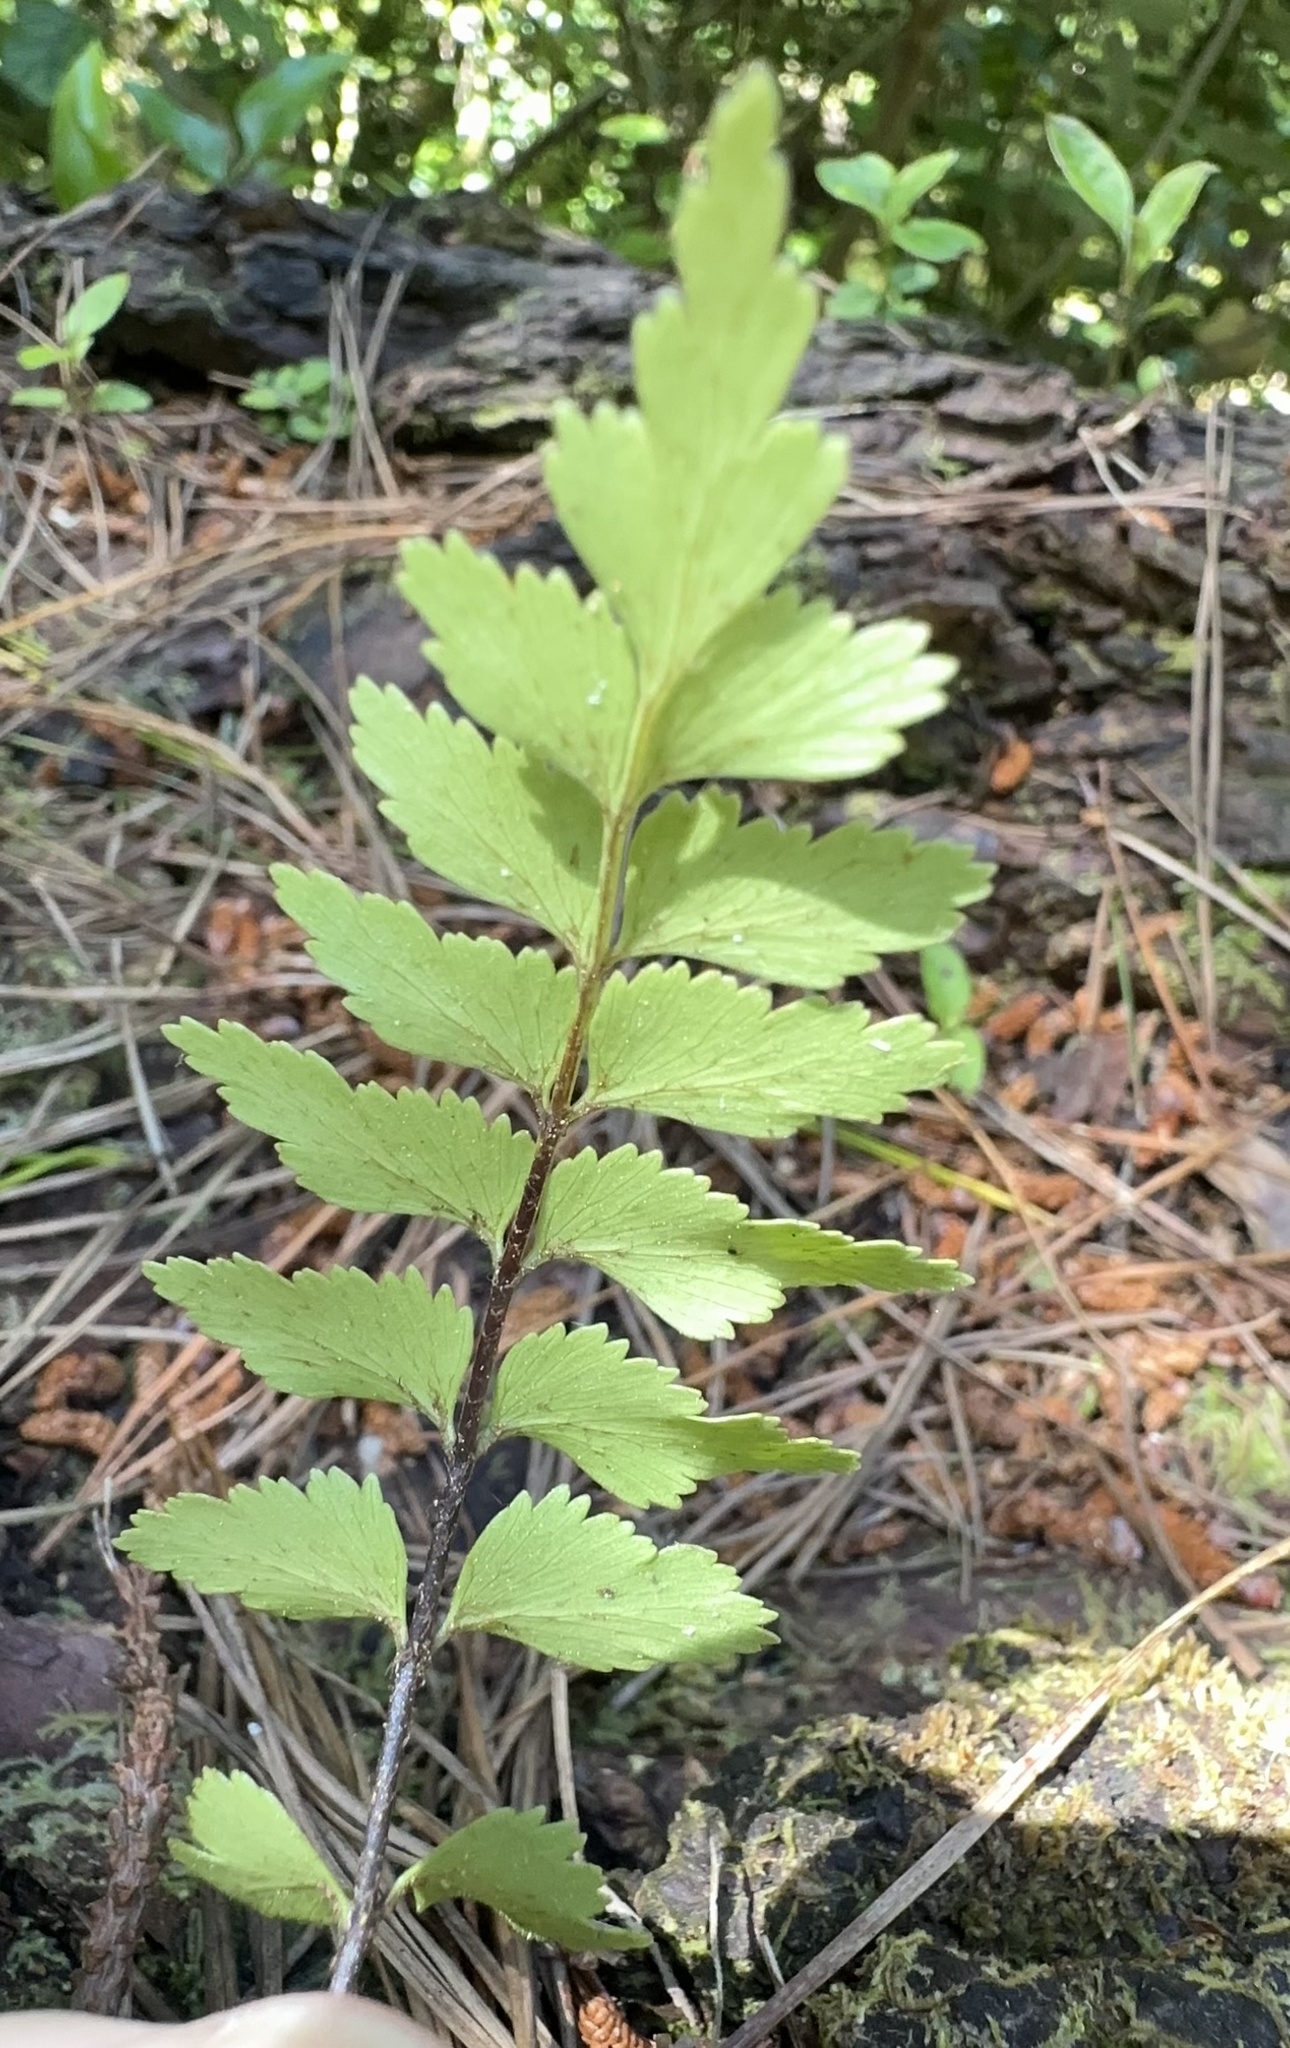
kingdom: Plantae
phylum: Tracheophyta
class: Polypodiopsida
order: Polypodiales
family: Aspleniaceae
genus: Asplenium
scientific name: Asplenium polyodon
